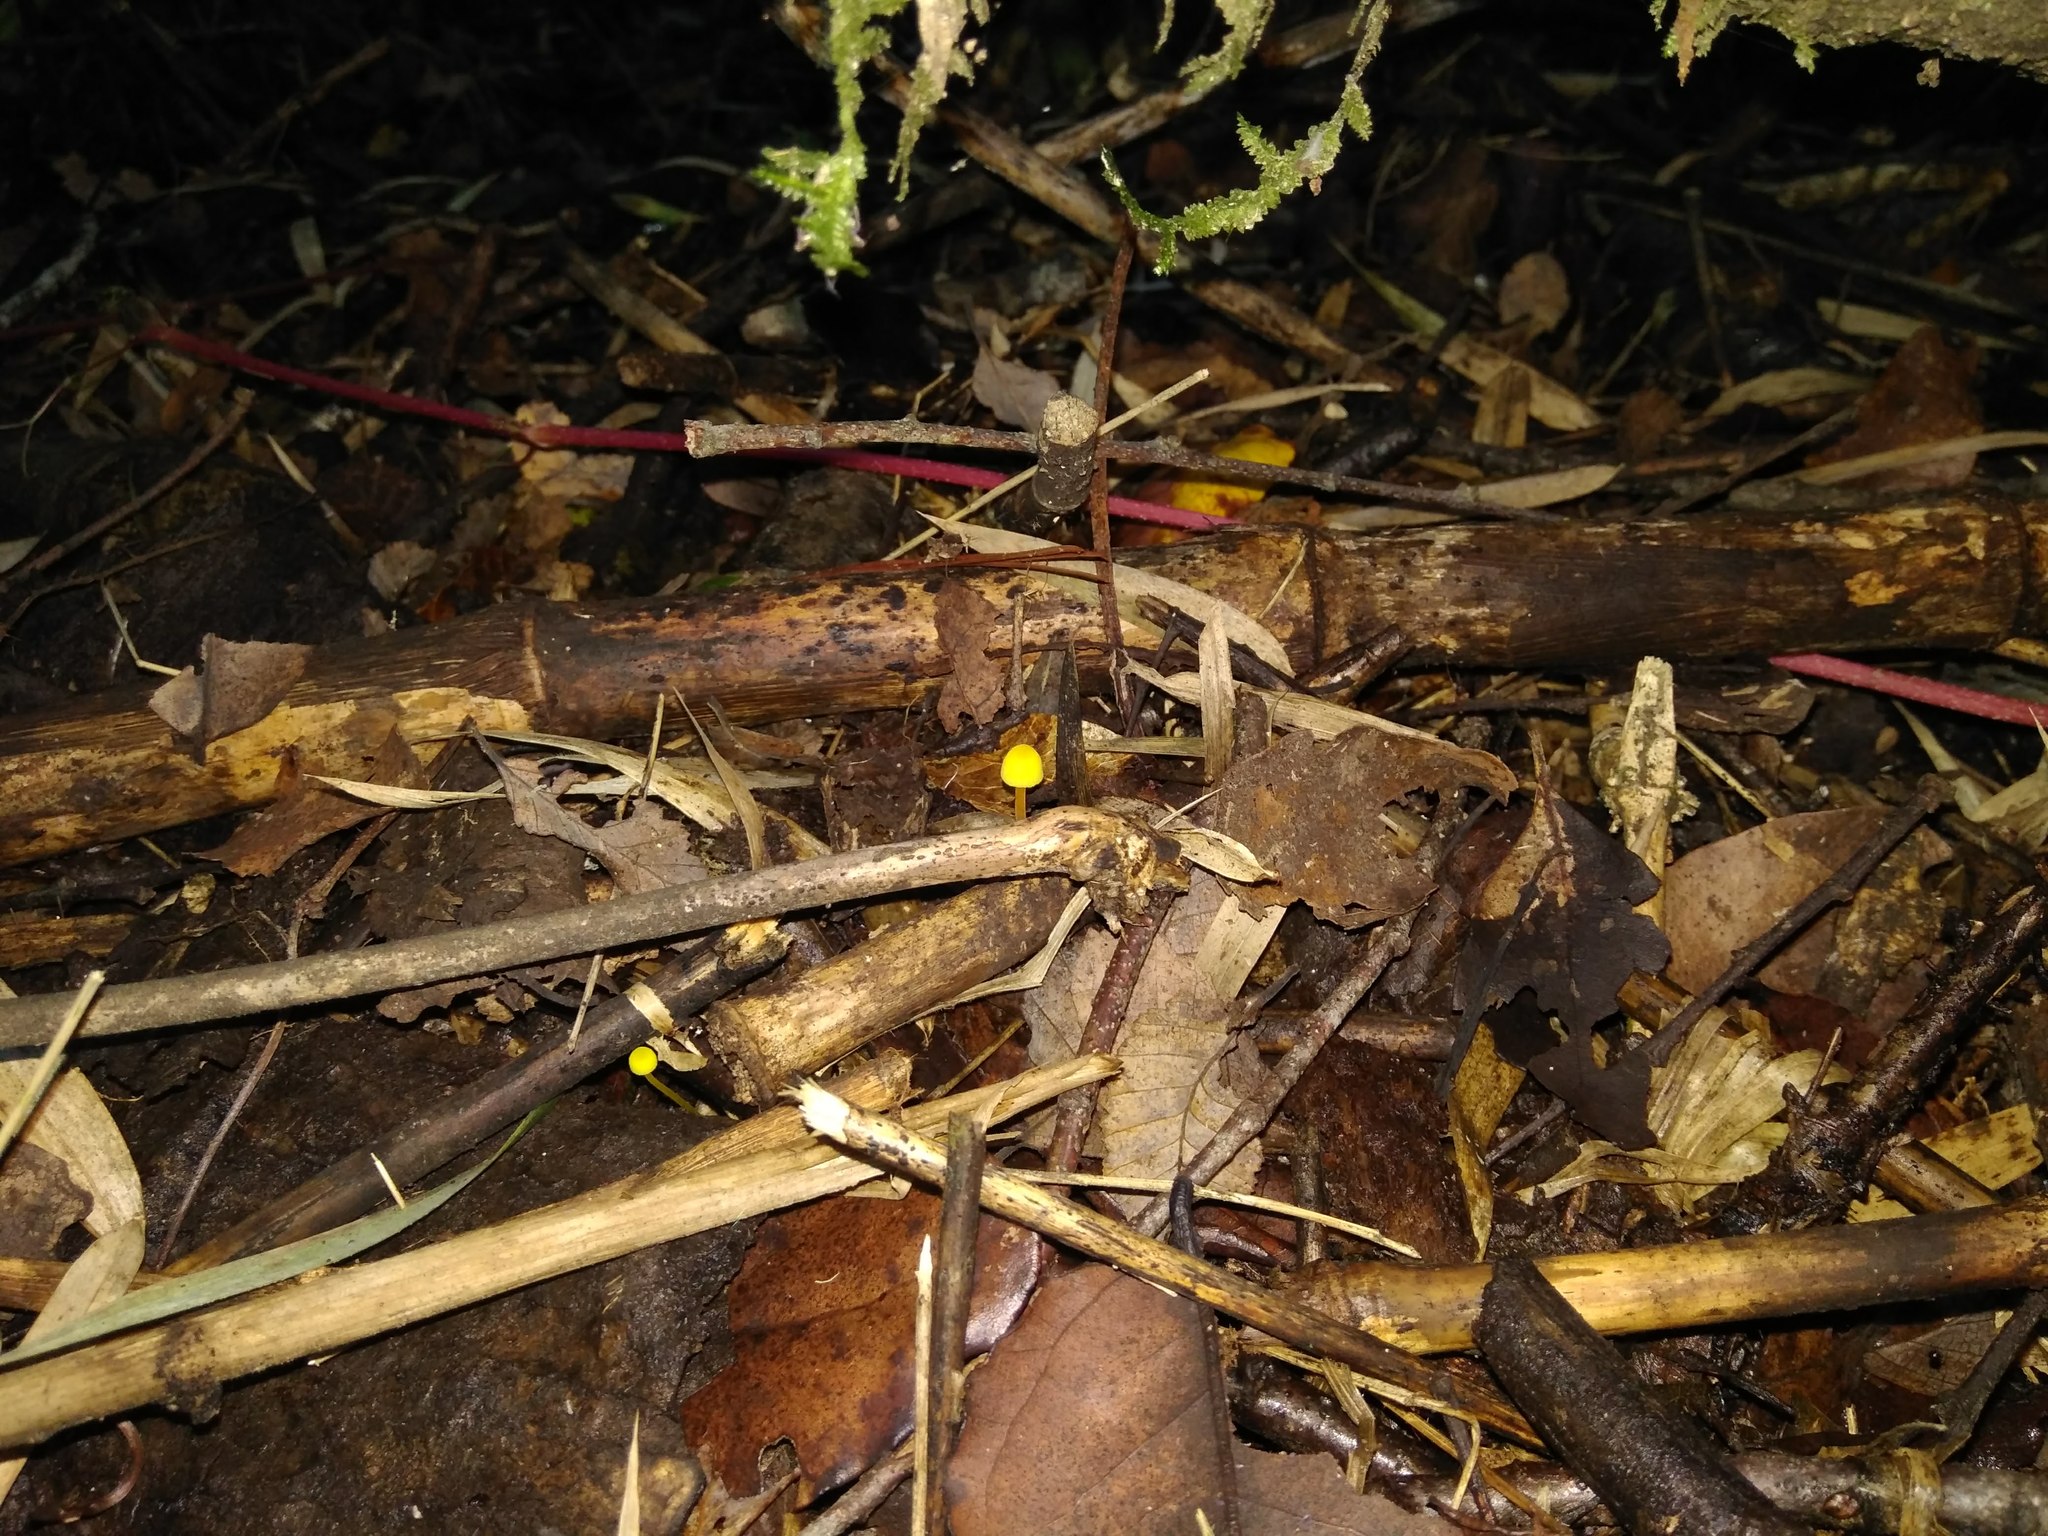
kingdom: Fungi
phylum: Basidiomycota
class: Agaricomycetes
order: Agaricales
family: Mycenaceae
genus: Mycena
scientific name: Mycena chusqueophila
